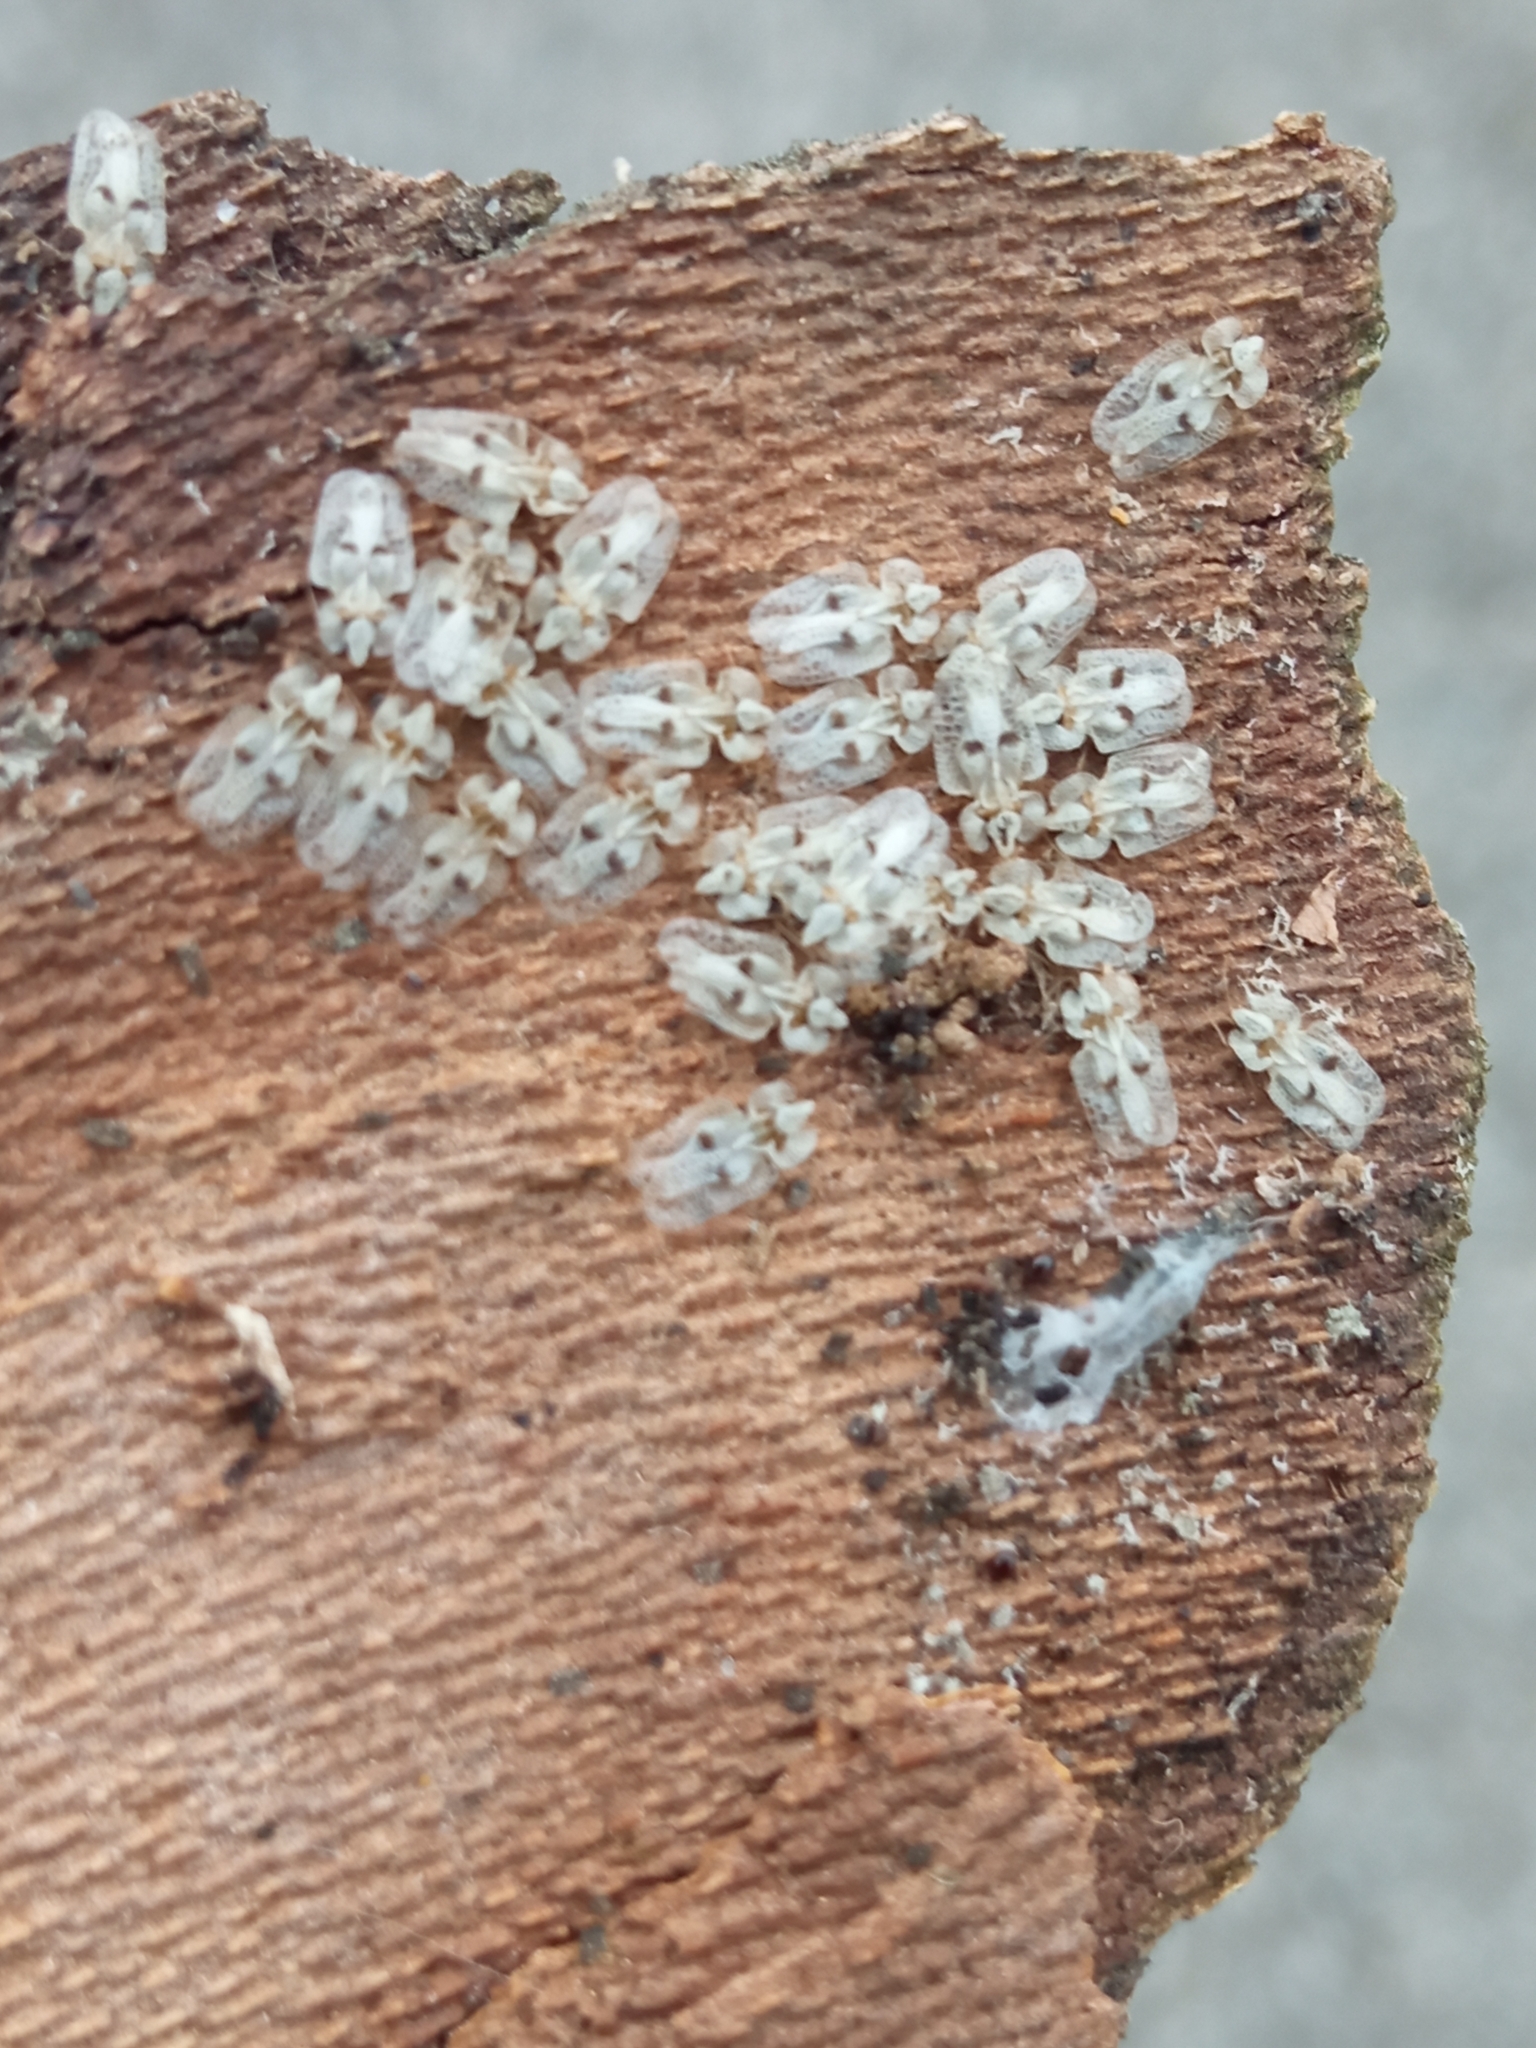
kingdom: Animalia
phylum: Arthropoda
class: Insecta
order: Hemiptera
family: Tingidae
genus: Corythucha
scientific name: Corythucha ciliata
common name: Sycamore lace bug
